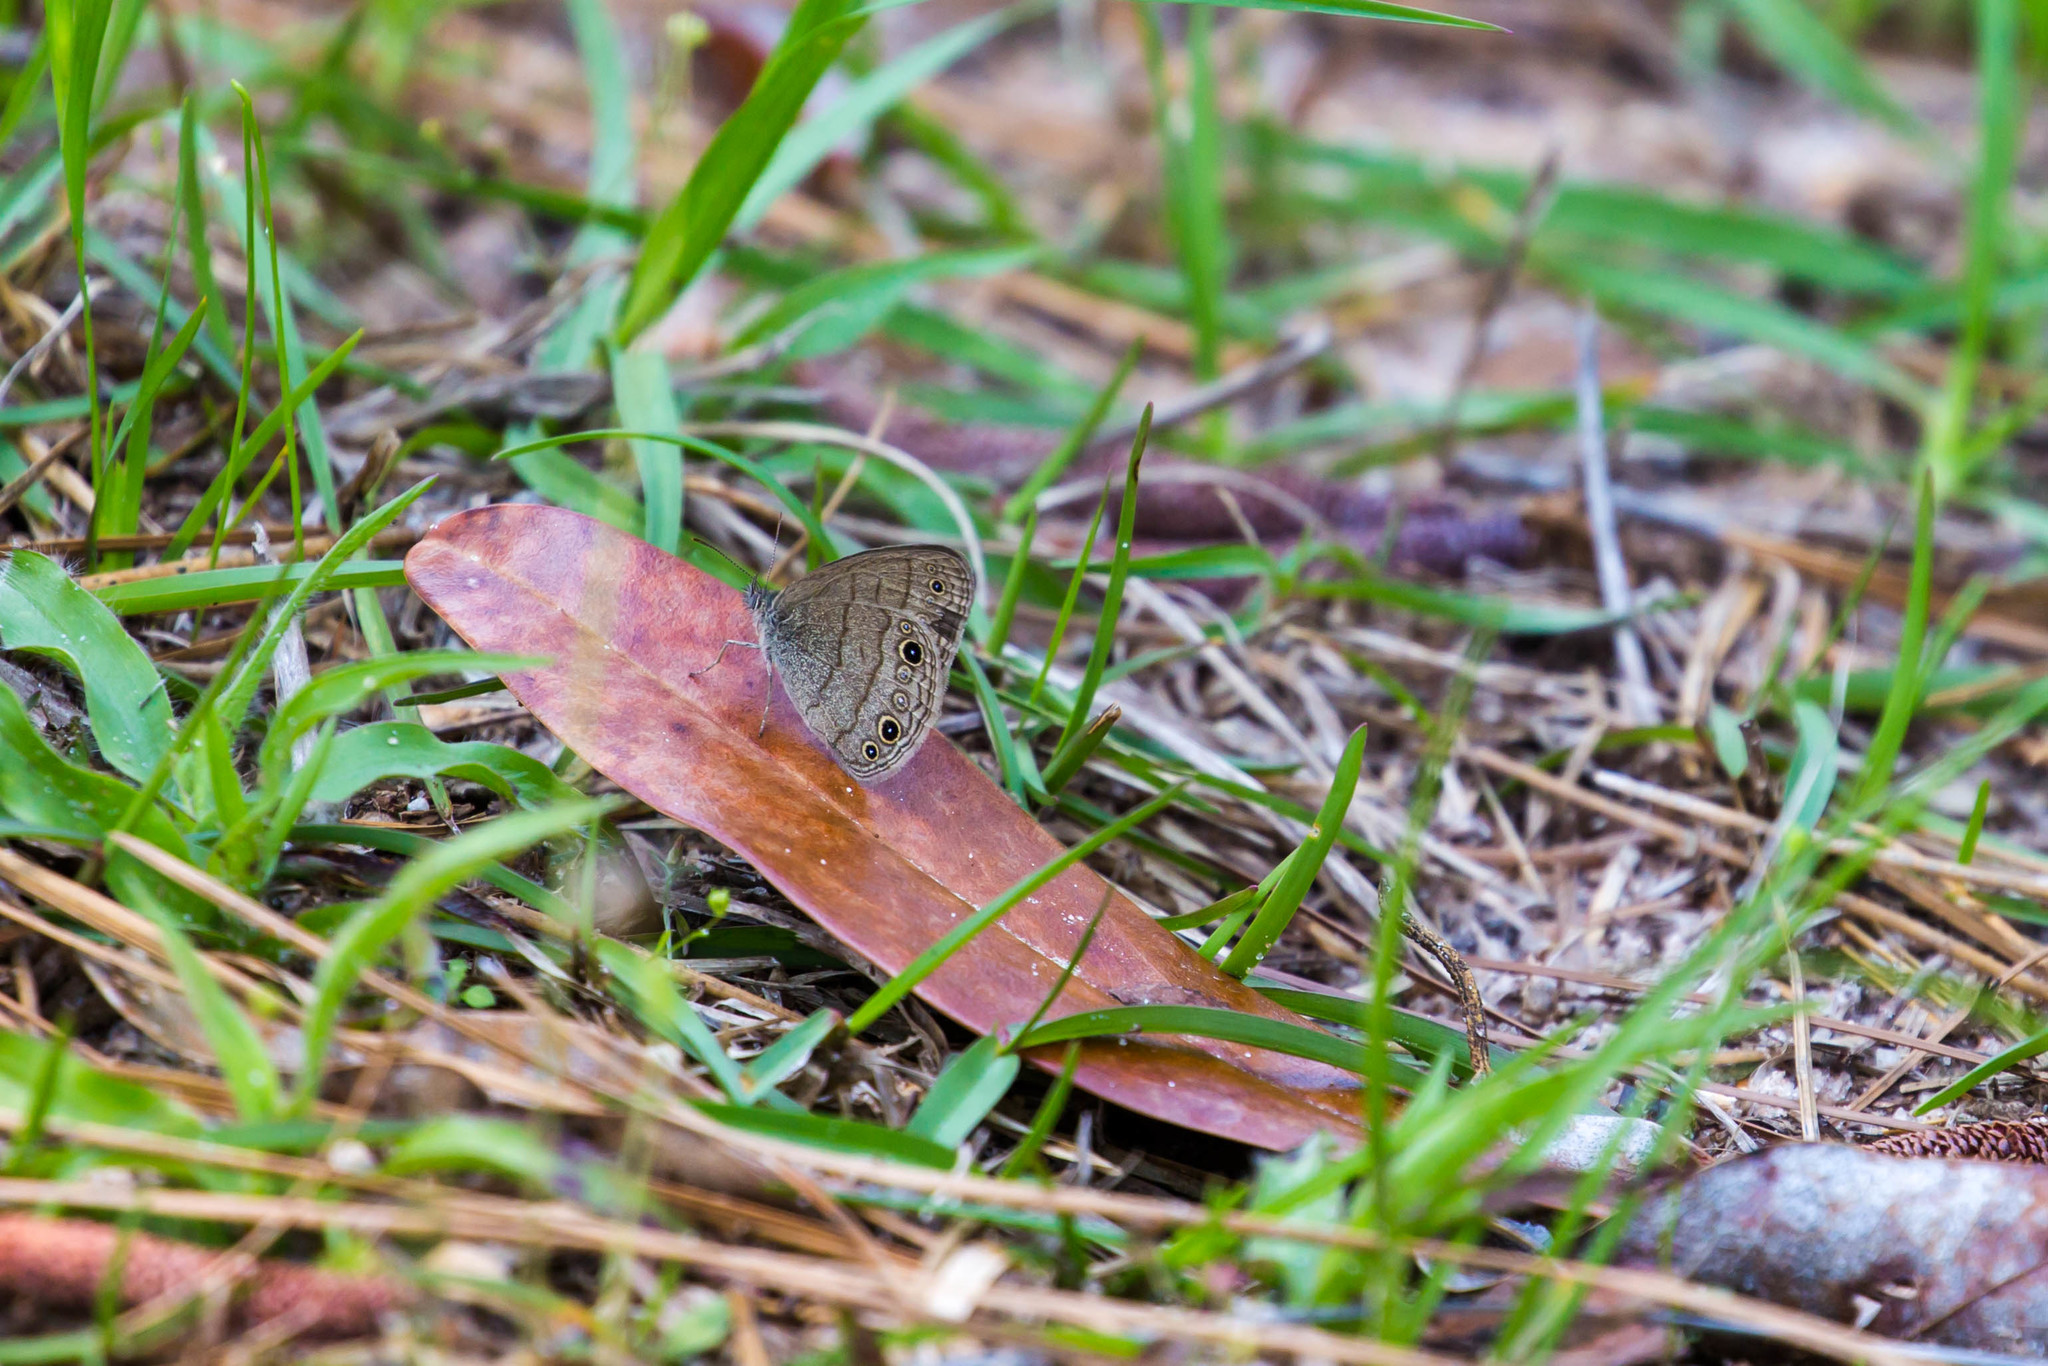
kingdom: Animalia
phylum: Arthropoda
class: Insecta
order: Lepidoptera
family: Nymphalidae
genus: Hermeuptychia
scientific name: Hermeuptychia hermes
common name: Hermes satyr
